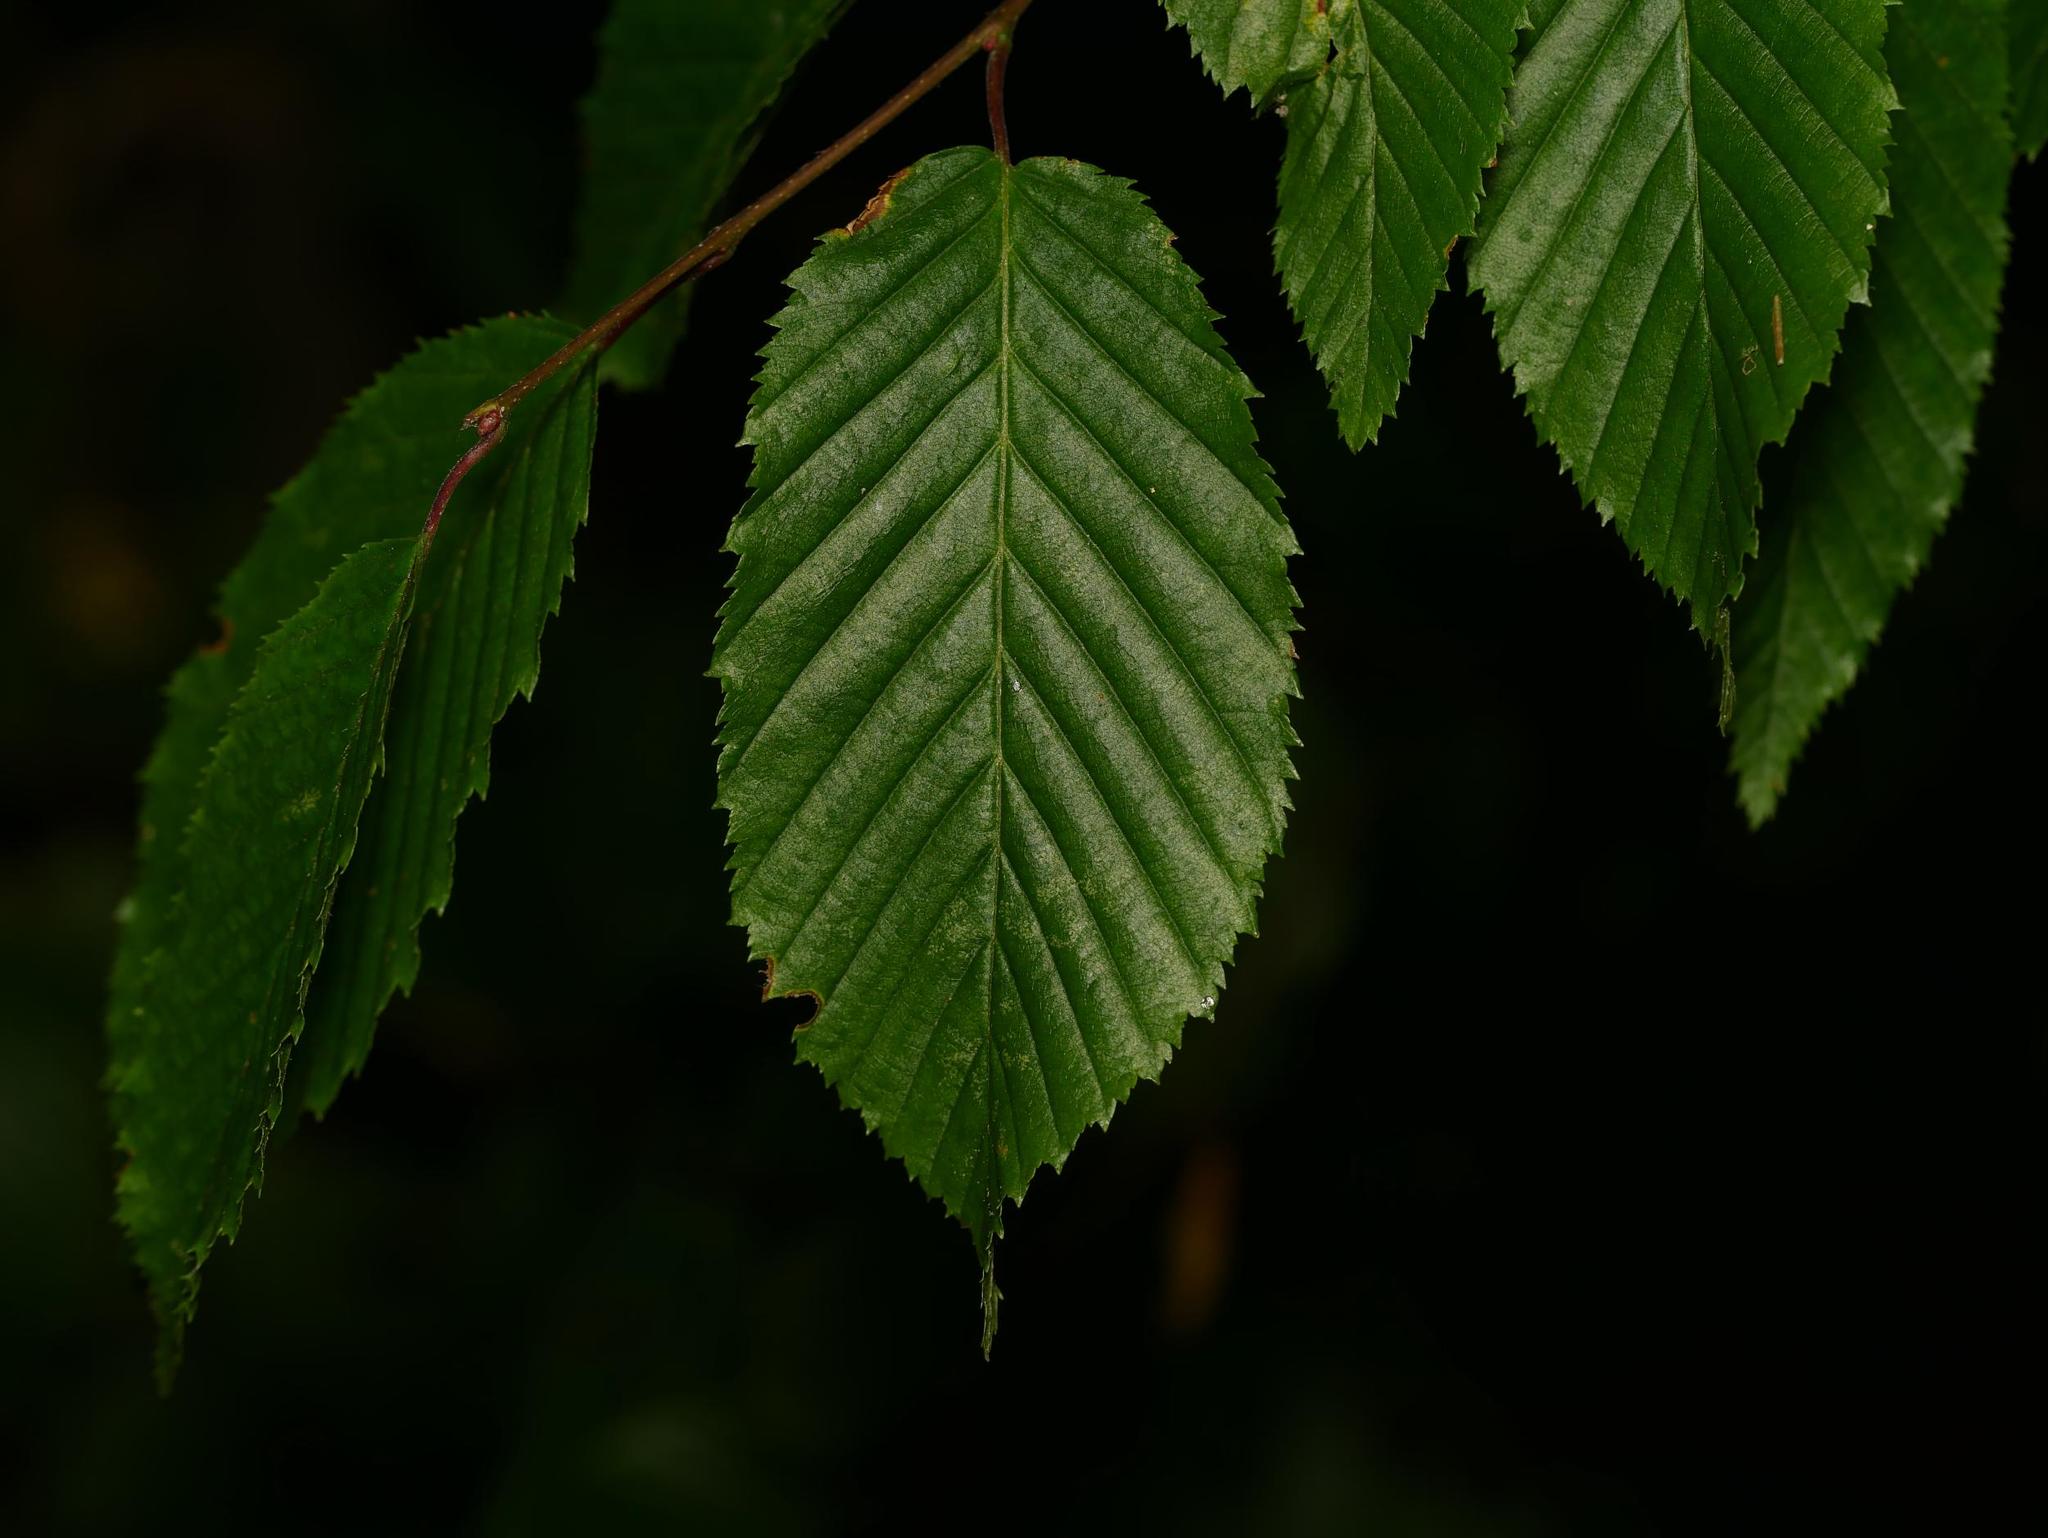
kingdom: Plantae
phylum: Tracheophyta
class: Magnoliopsida
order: Fagales
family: Betulaceae
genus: Carpinus
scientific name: Carpinus betulus
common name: Hornbeam
